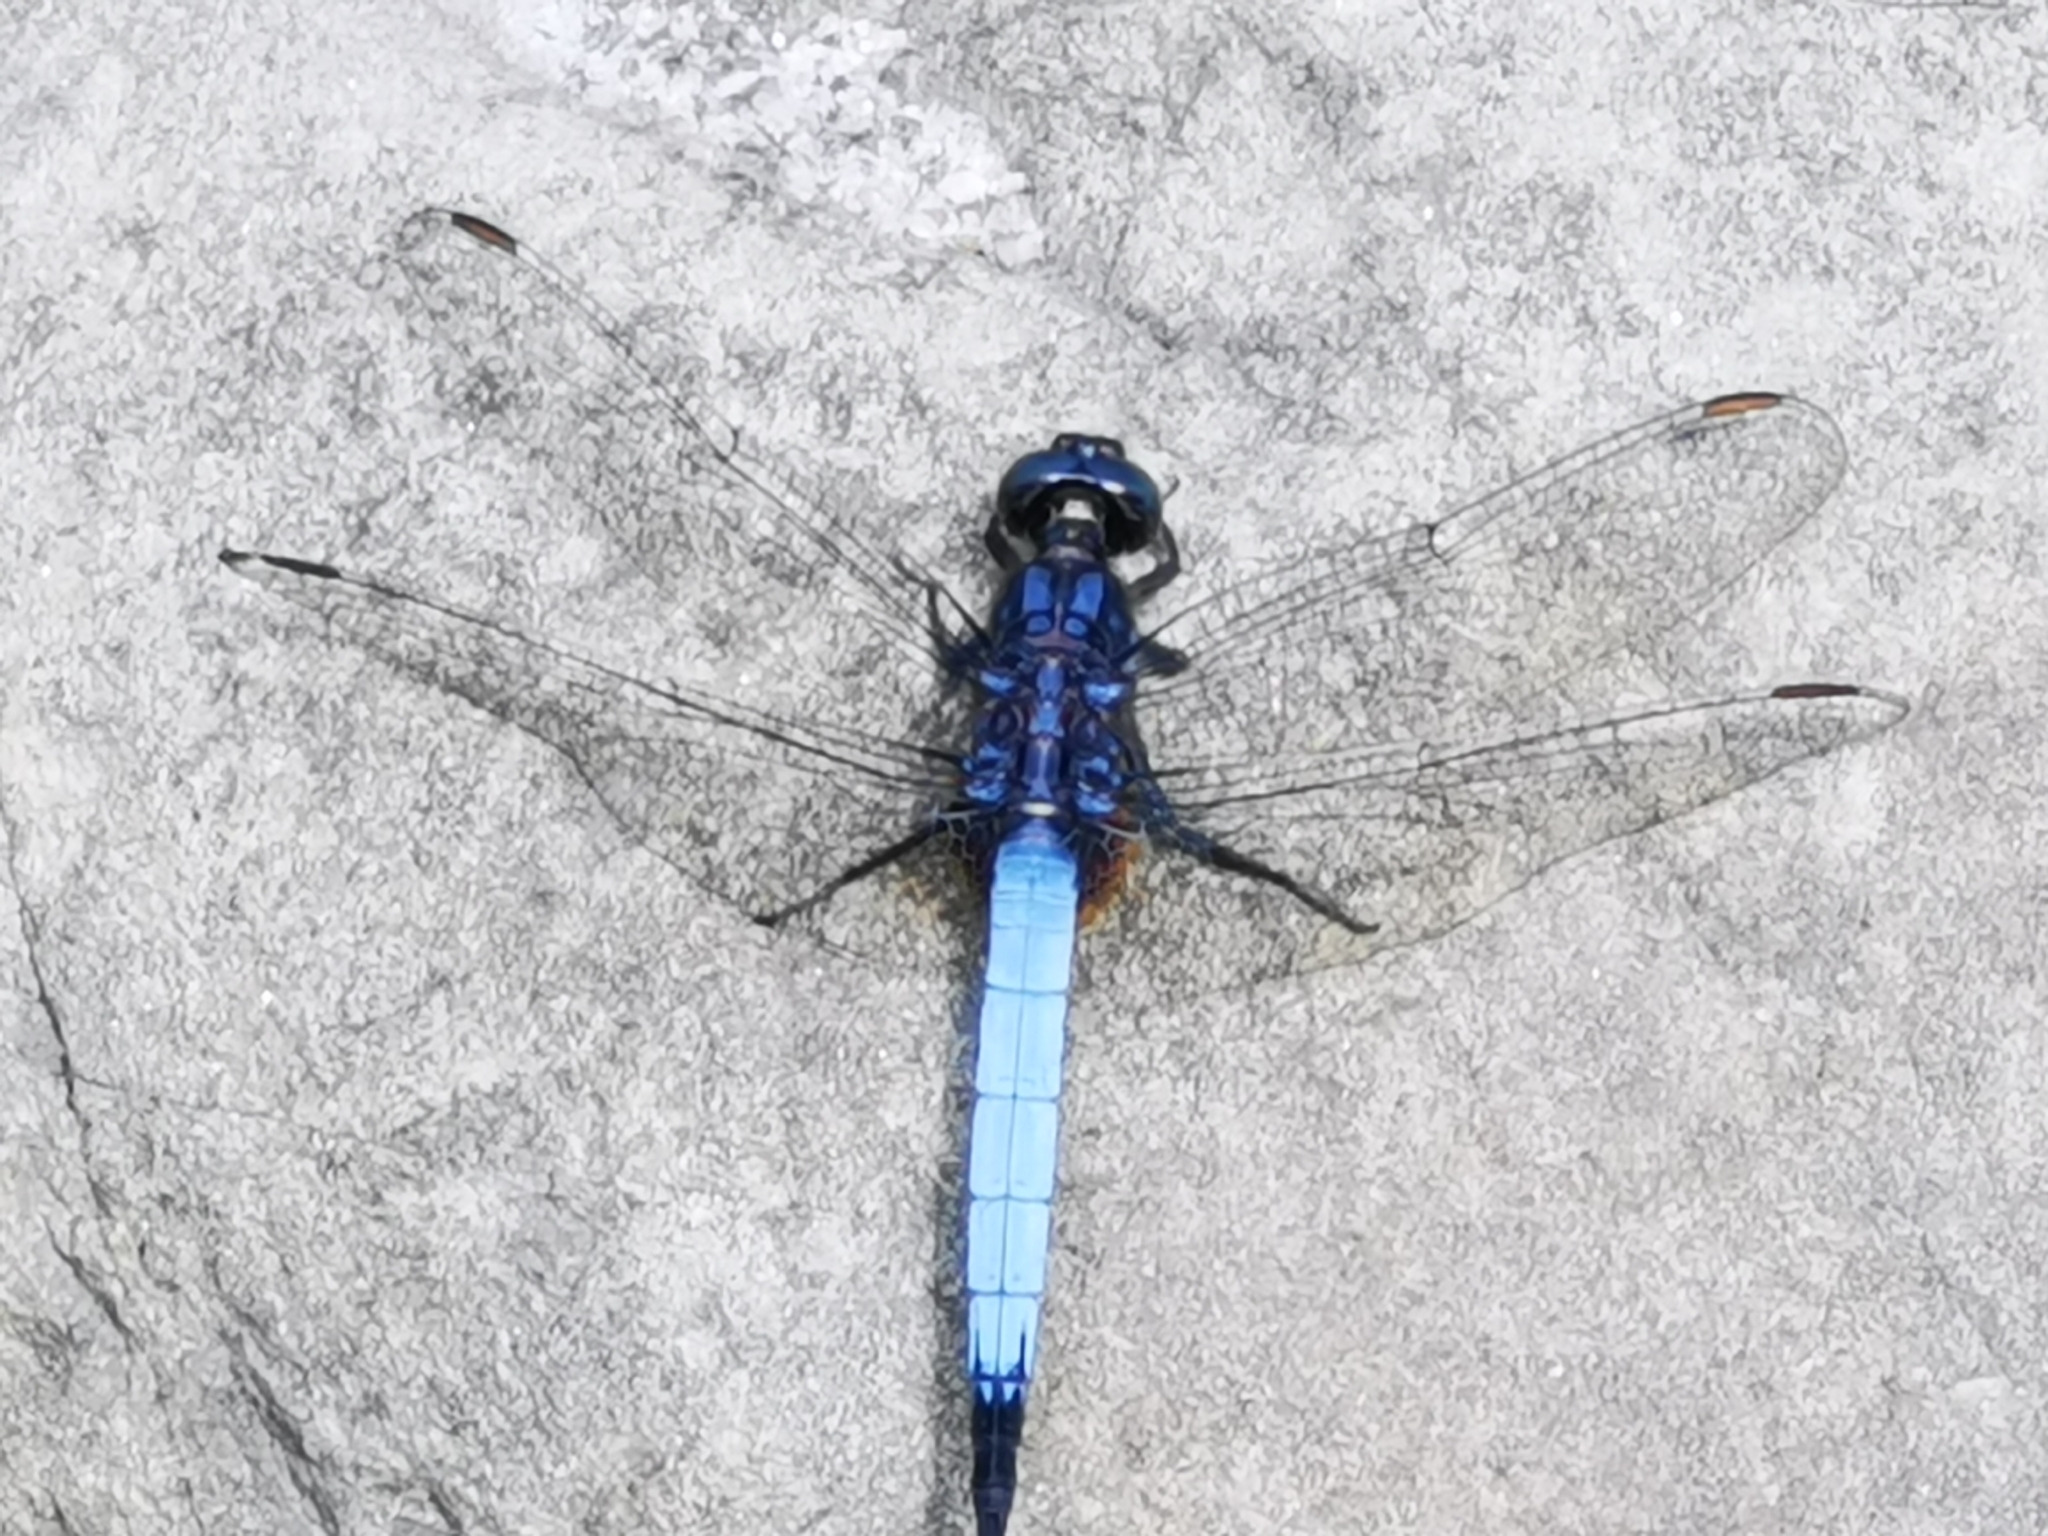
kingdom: Animalia
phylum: Arthropoda
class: Insecta
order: Odonata
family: Libellulidae
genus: Orthetrum
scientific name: Orthetrum glaucum
